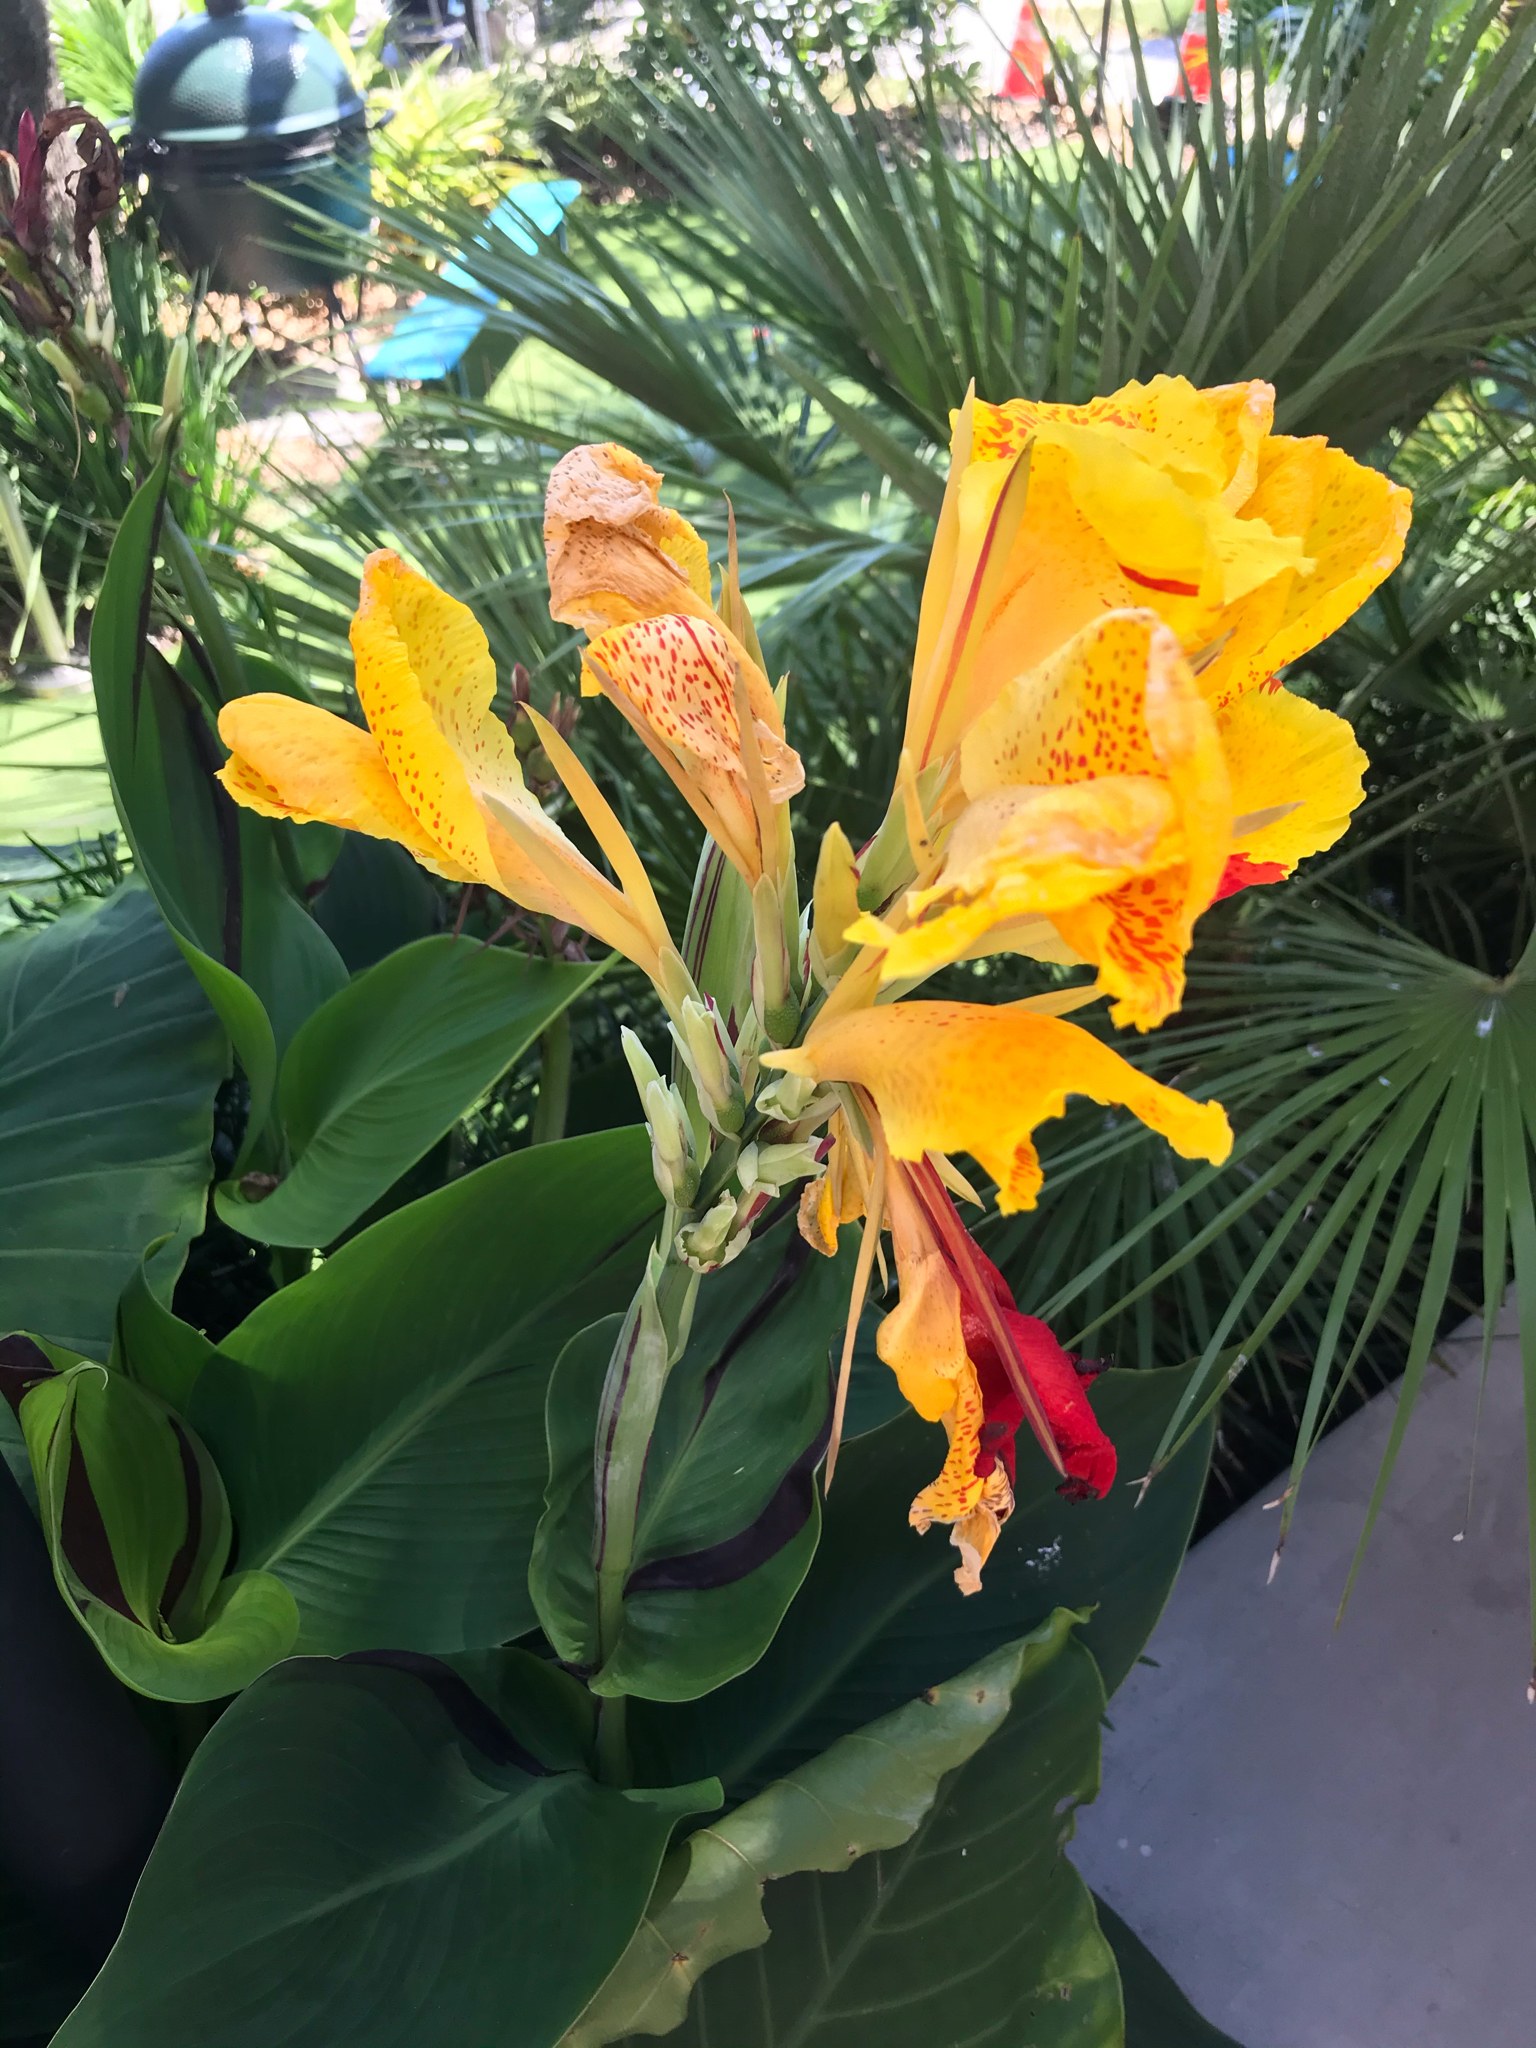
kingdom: Plantae
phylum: Tracheophyta
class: Liliopsida
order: Zingiberales
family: Cannaceae
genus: Canna
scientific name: Canna hybrida
